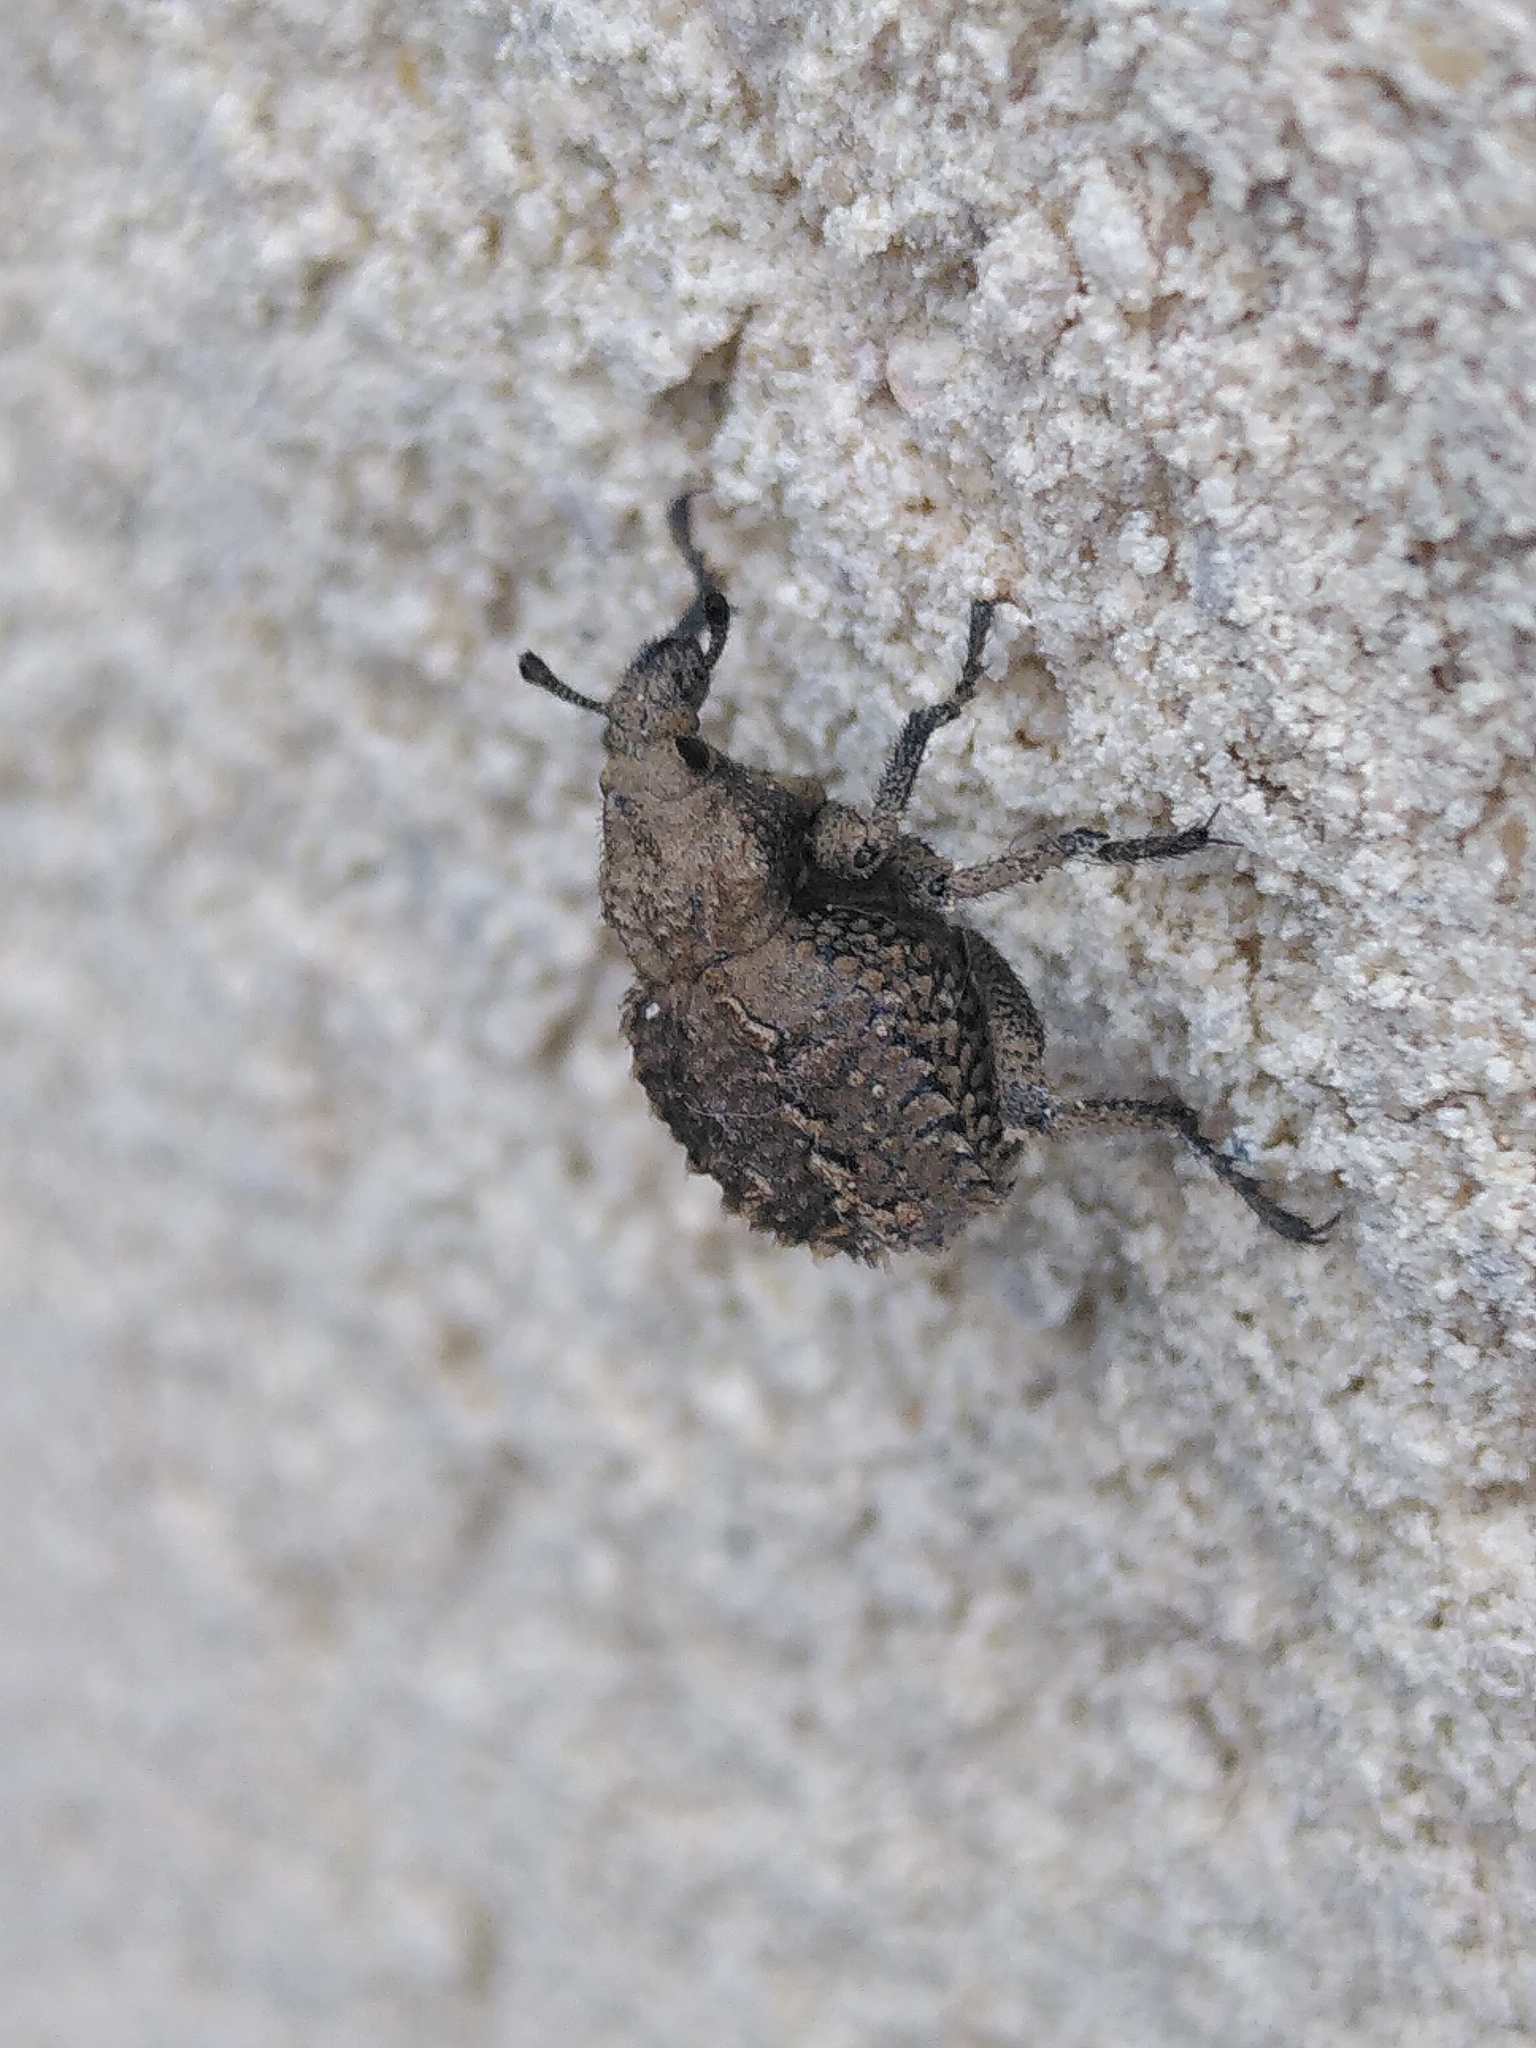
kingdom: Animalia
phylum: Arthropoda
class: Insecta
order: Coleoptera
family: Brachyceridae
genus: Brachycerus
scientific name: Brachycerus muricatus
